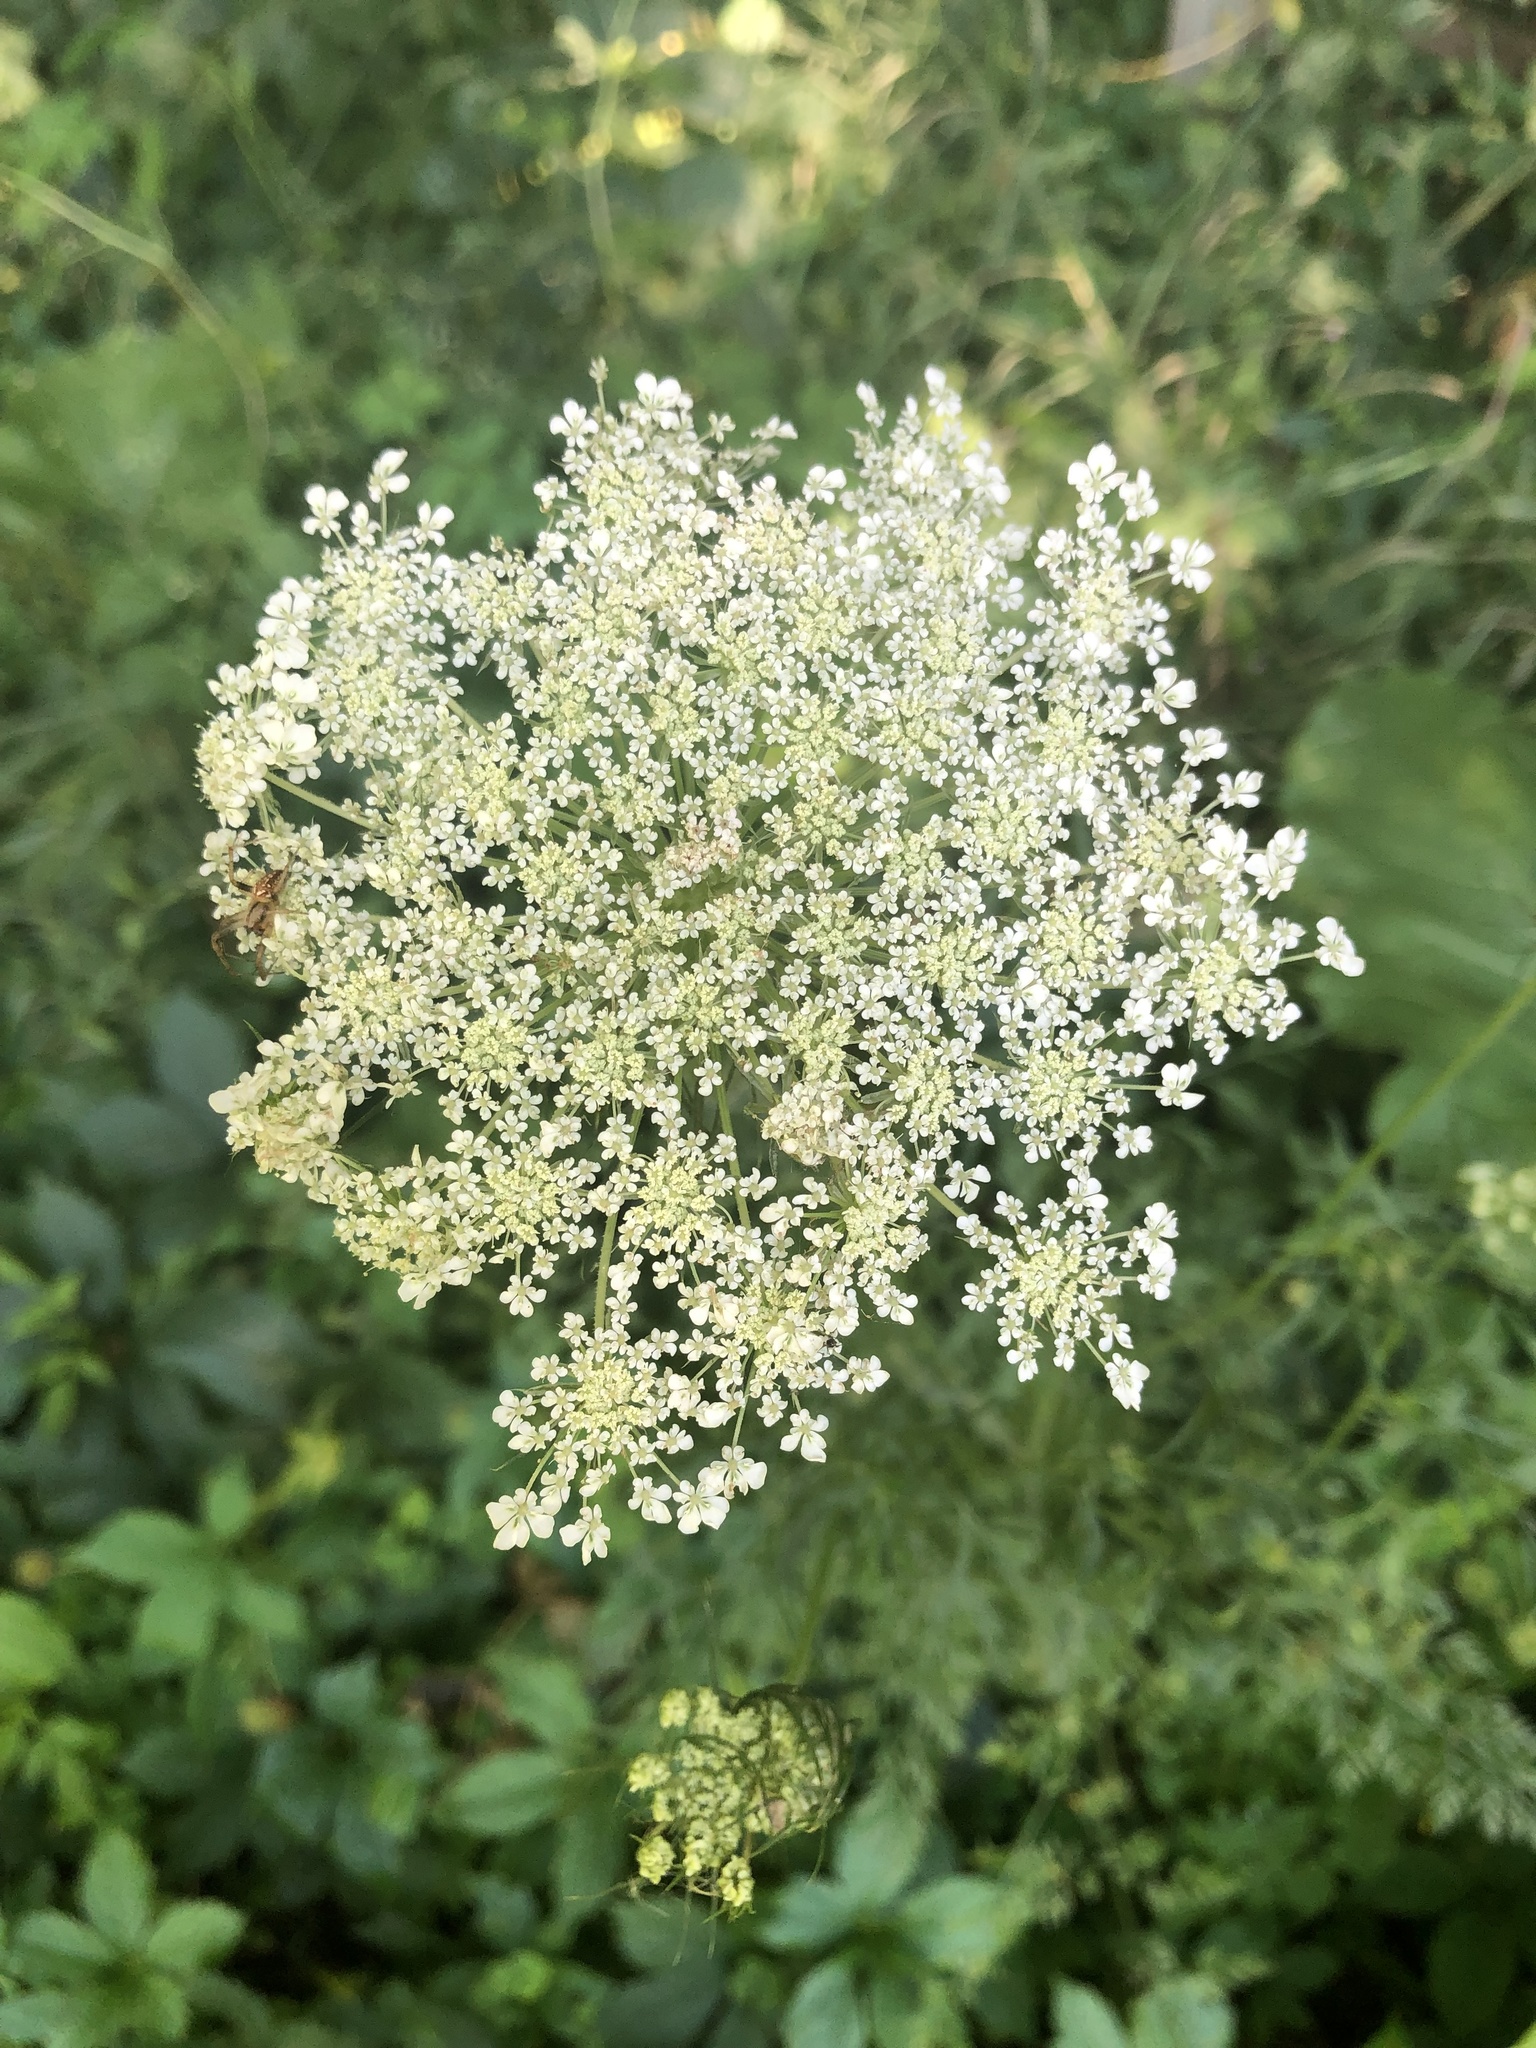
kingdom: Plantae
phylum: Tracheophyta
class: Magnoliopsida
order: Apiales
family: Apiaceae
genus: Daucus
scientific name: Daucus carota
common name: Wild carrot
